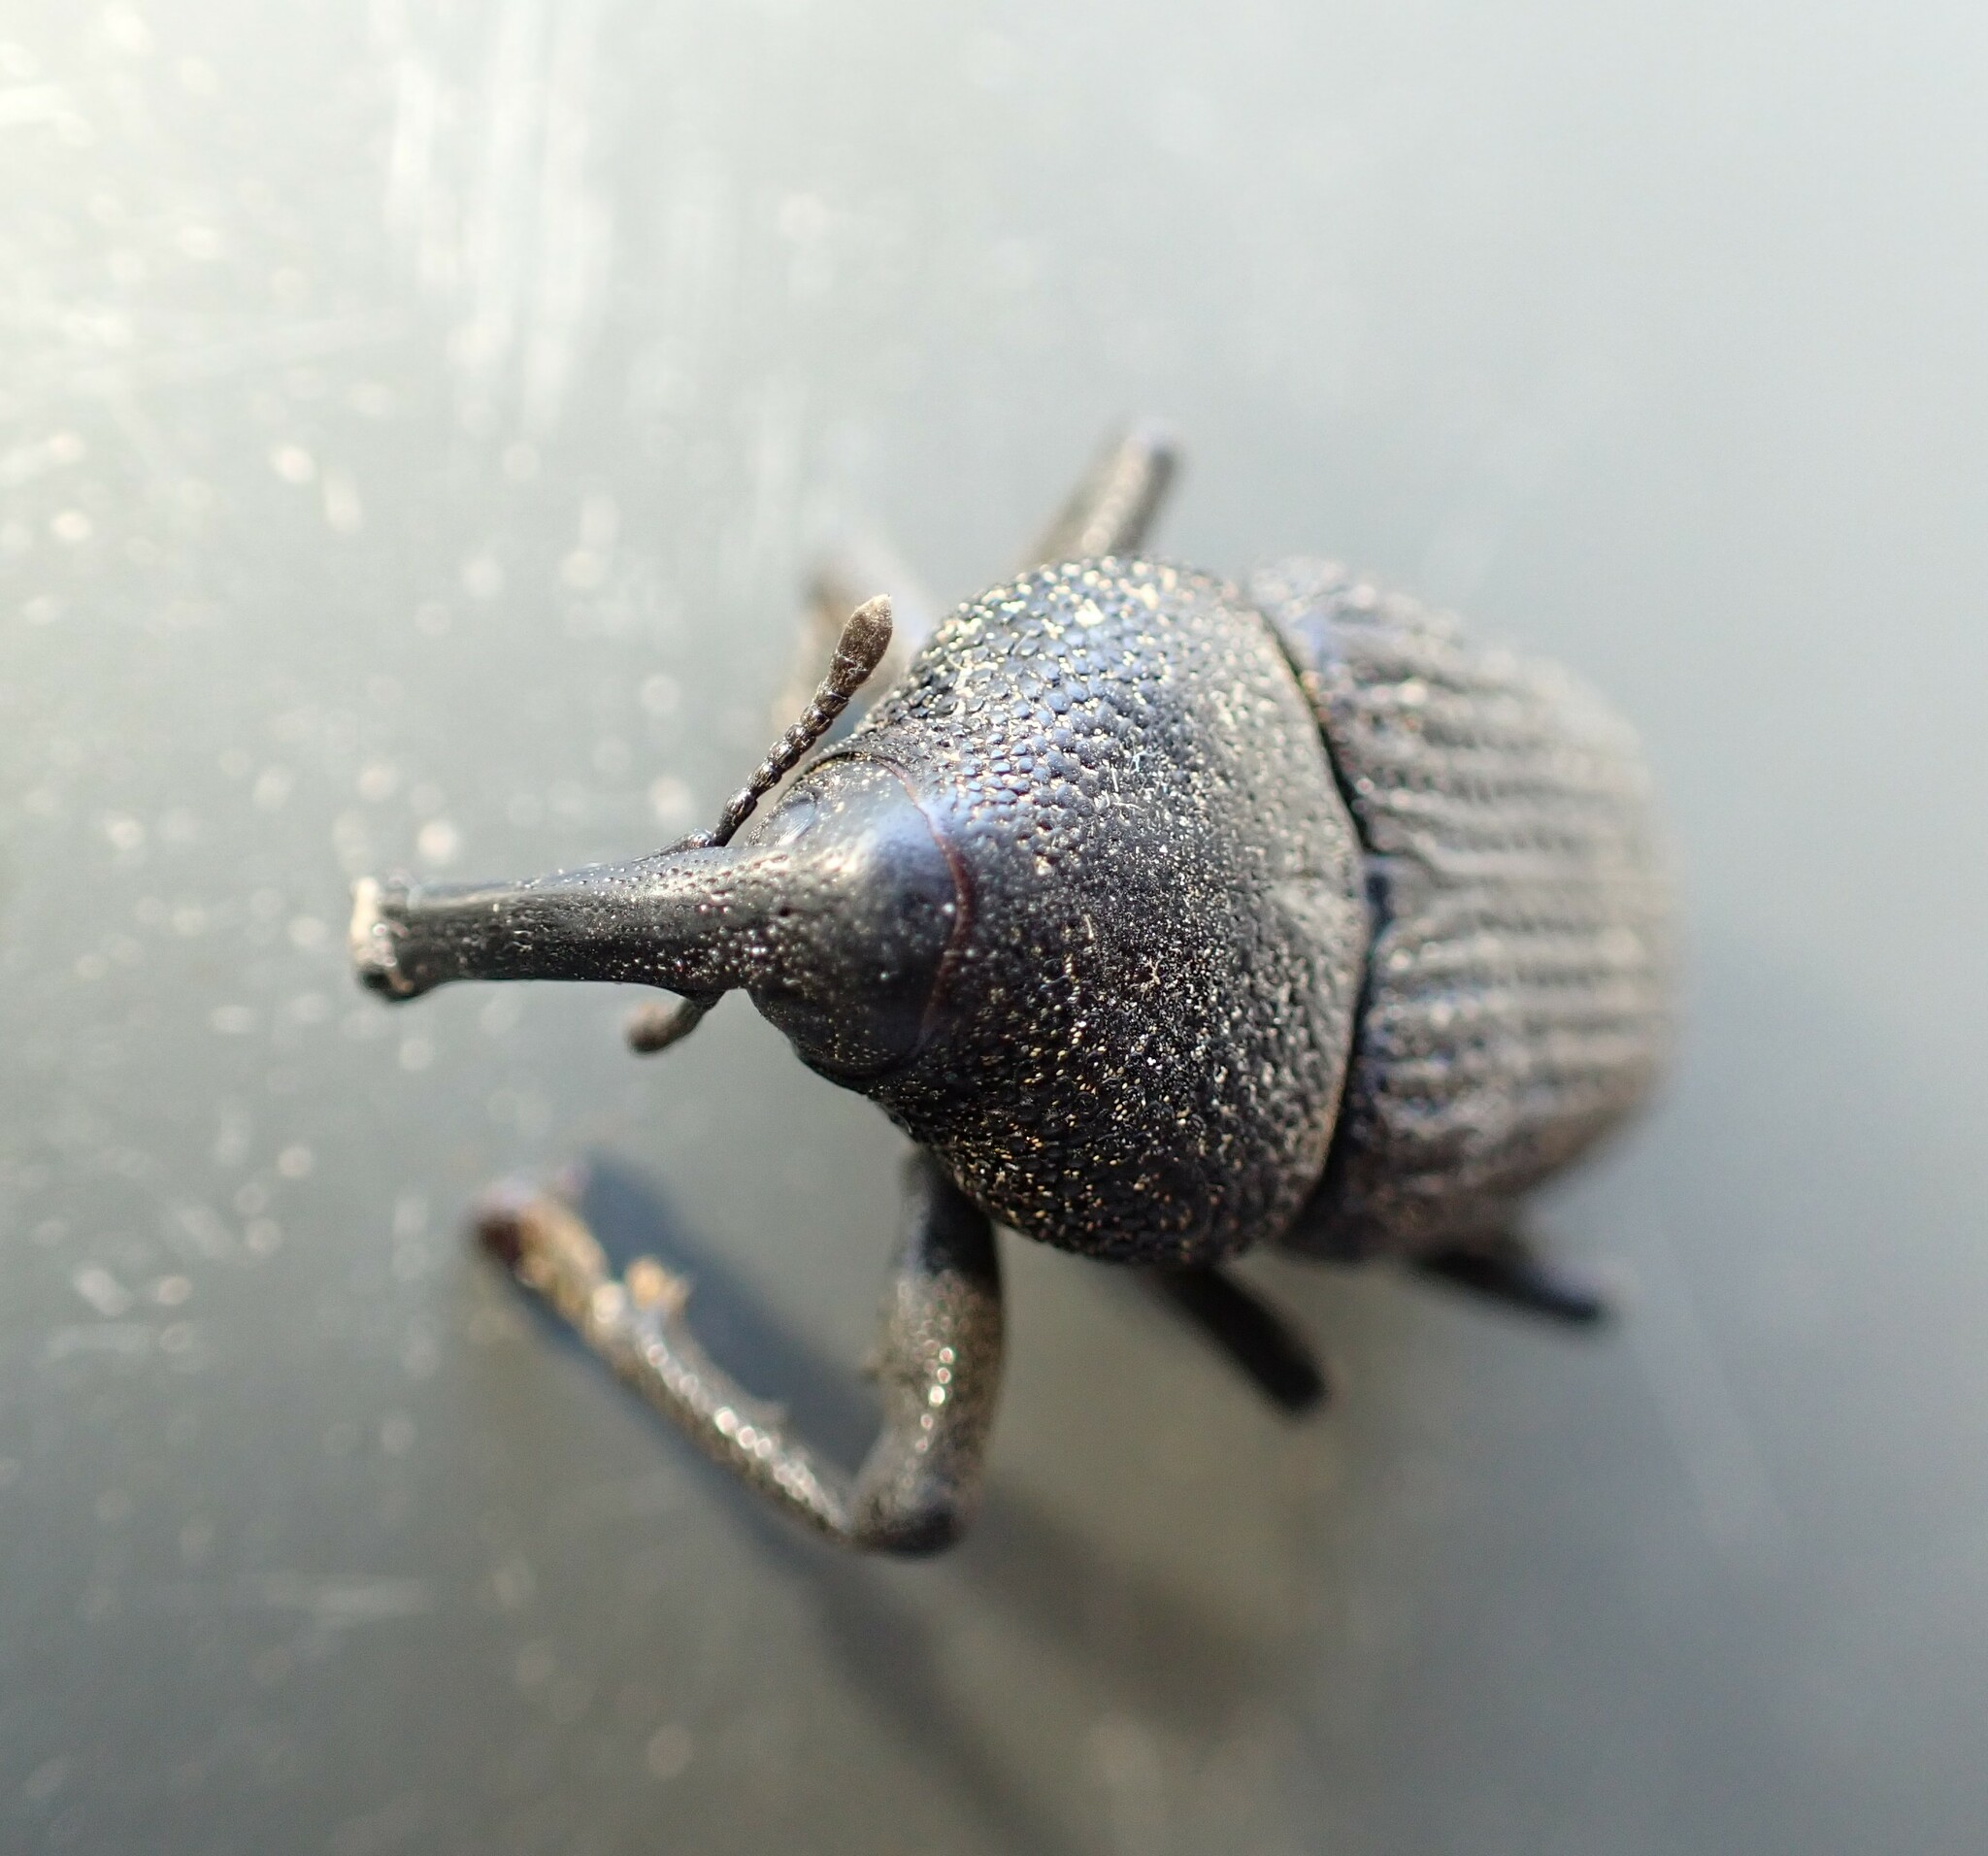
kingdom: Animalia
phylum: Arthropoda
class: Insecta
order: Coleoptera
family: Curculionidae
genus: Homalinotus
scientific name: Homalinotus coriaceus
